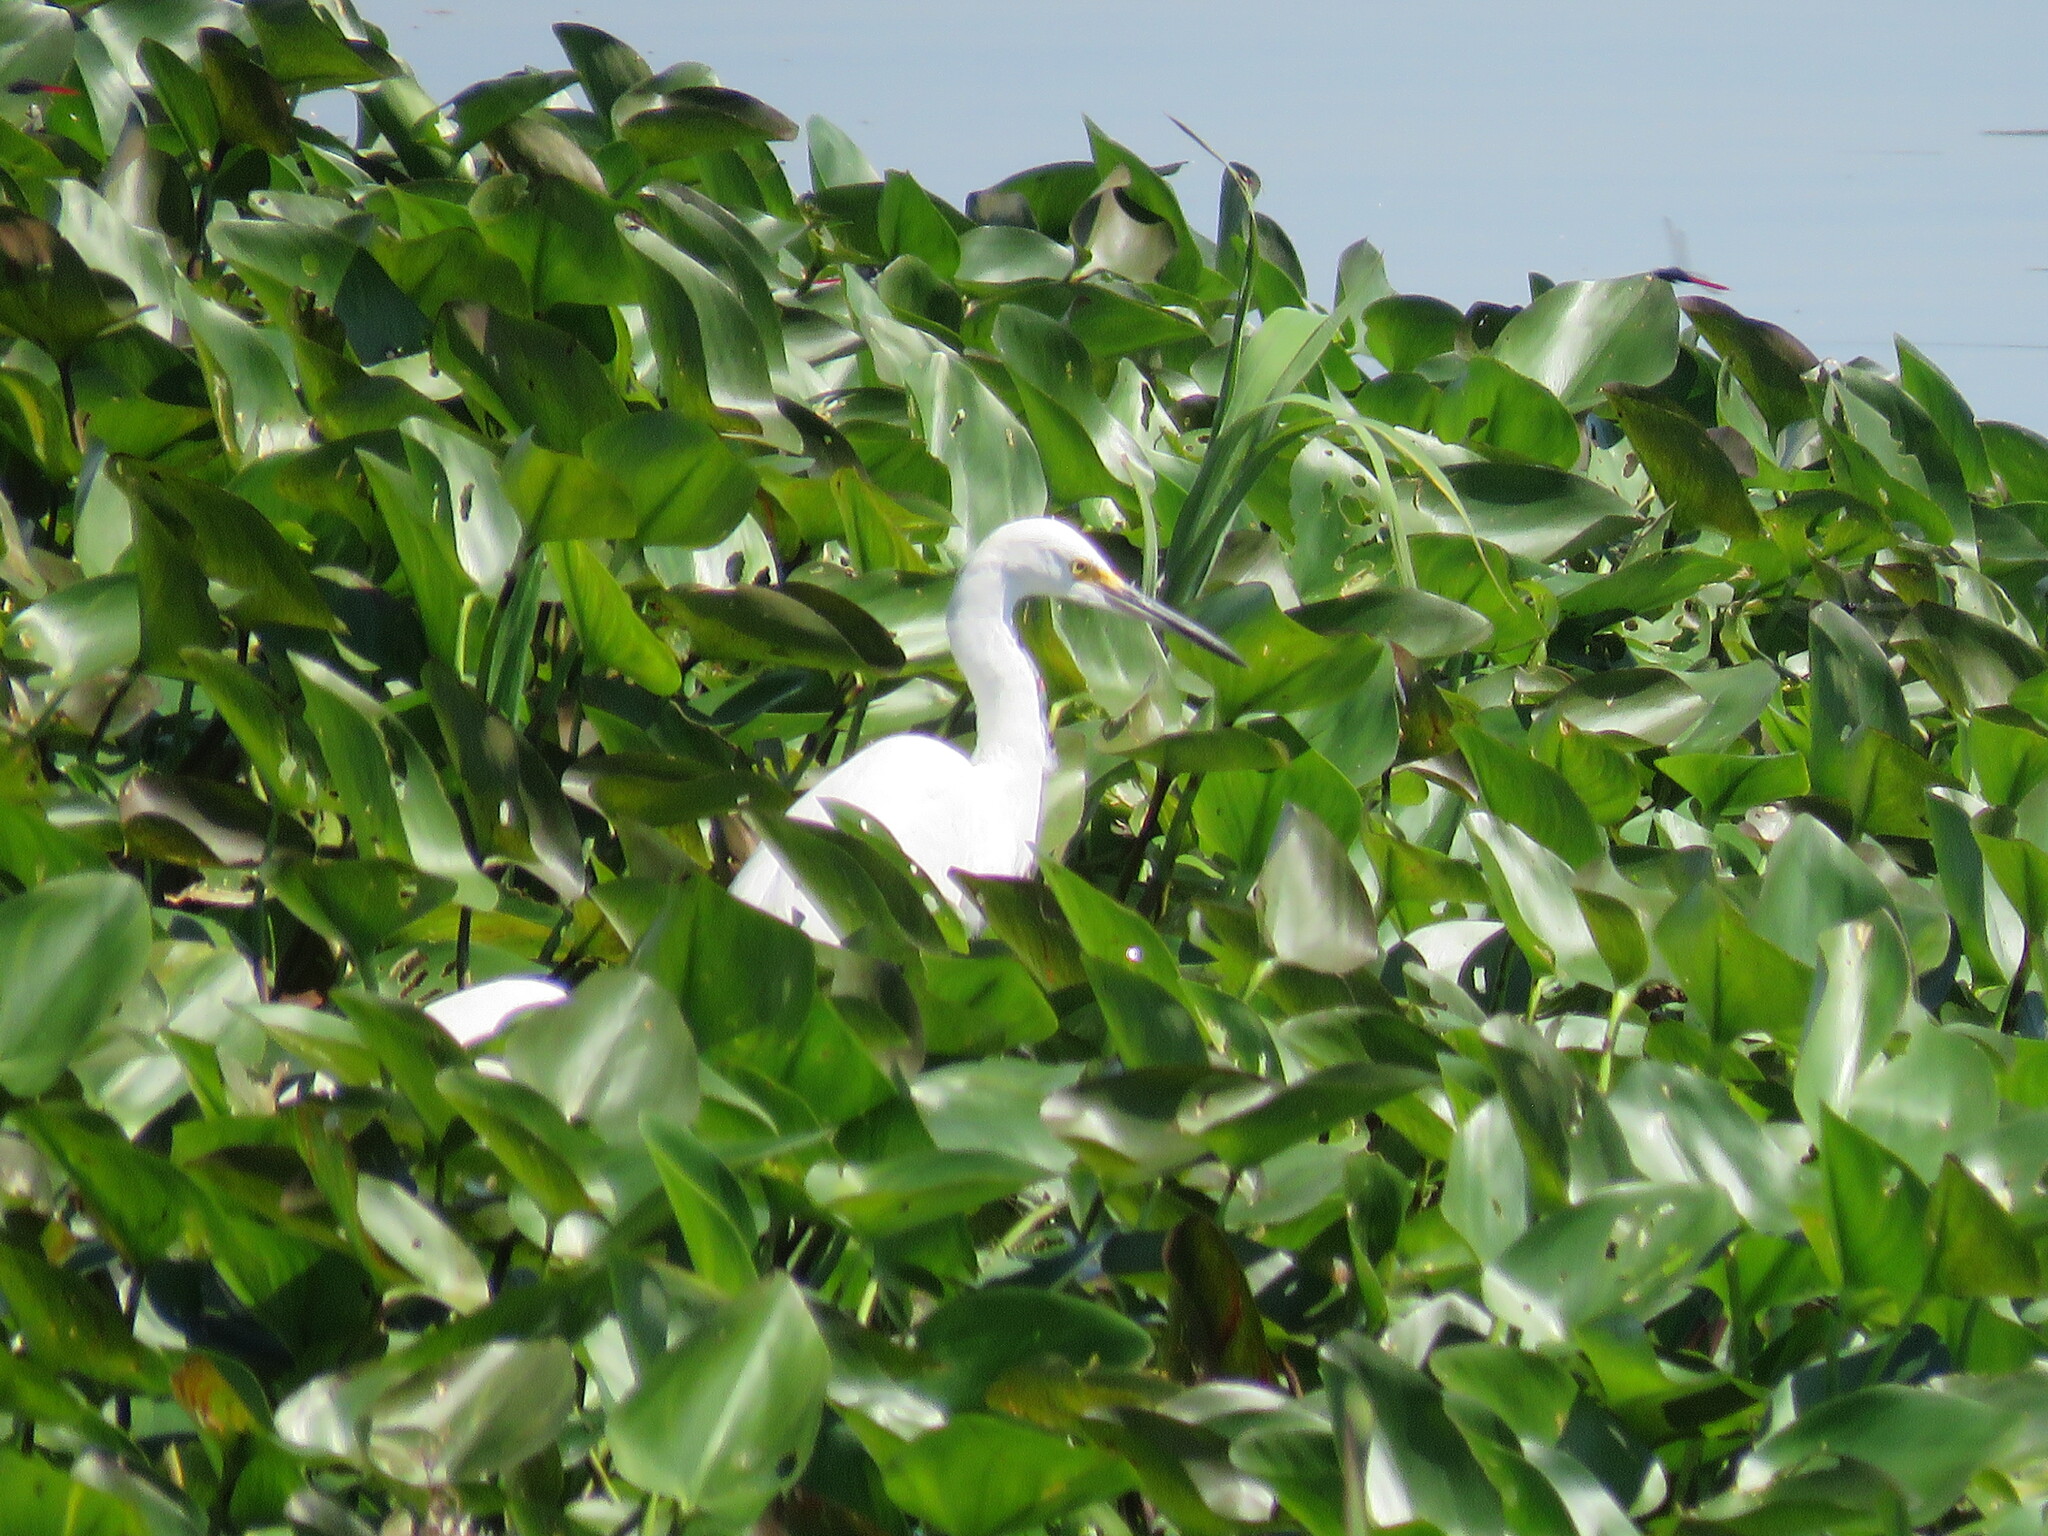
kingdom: Animalia
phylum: Chordata
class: Aves
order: Pelecaniformes
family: Ardeidae
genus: Egretta
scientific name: Egretta thula
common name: Snowy egret
